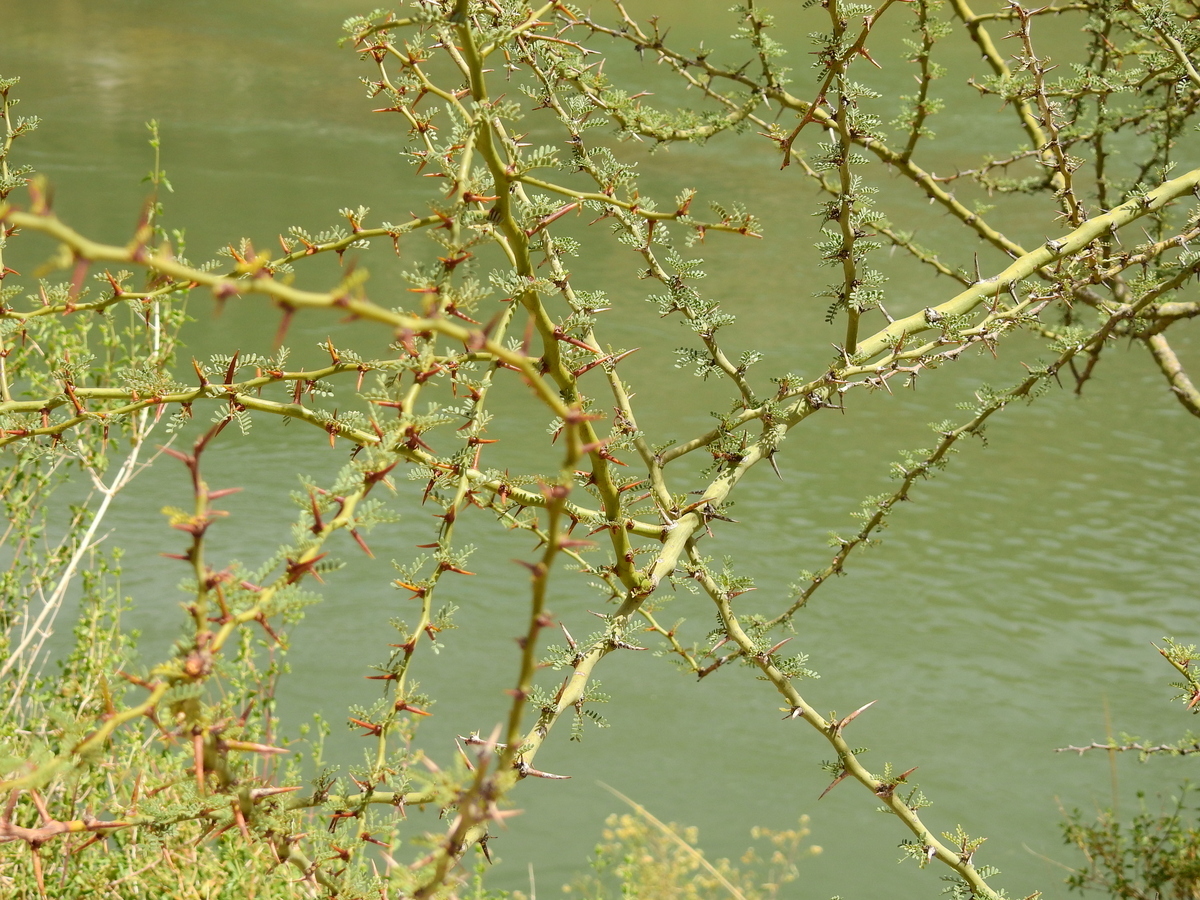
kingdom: Plantae
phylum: Tracheophyta
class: Magnoliopsida
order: Fabales
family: Fabaceae
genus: Parkinsonia
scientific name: Parkinsonia praecox
